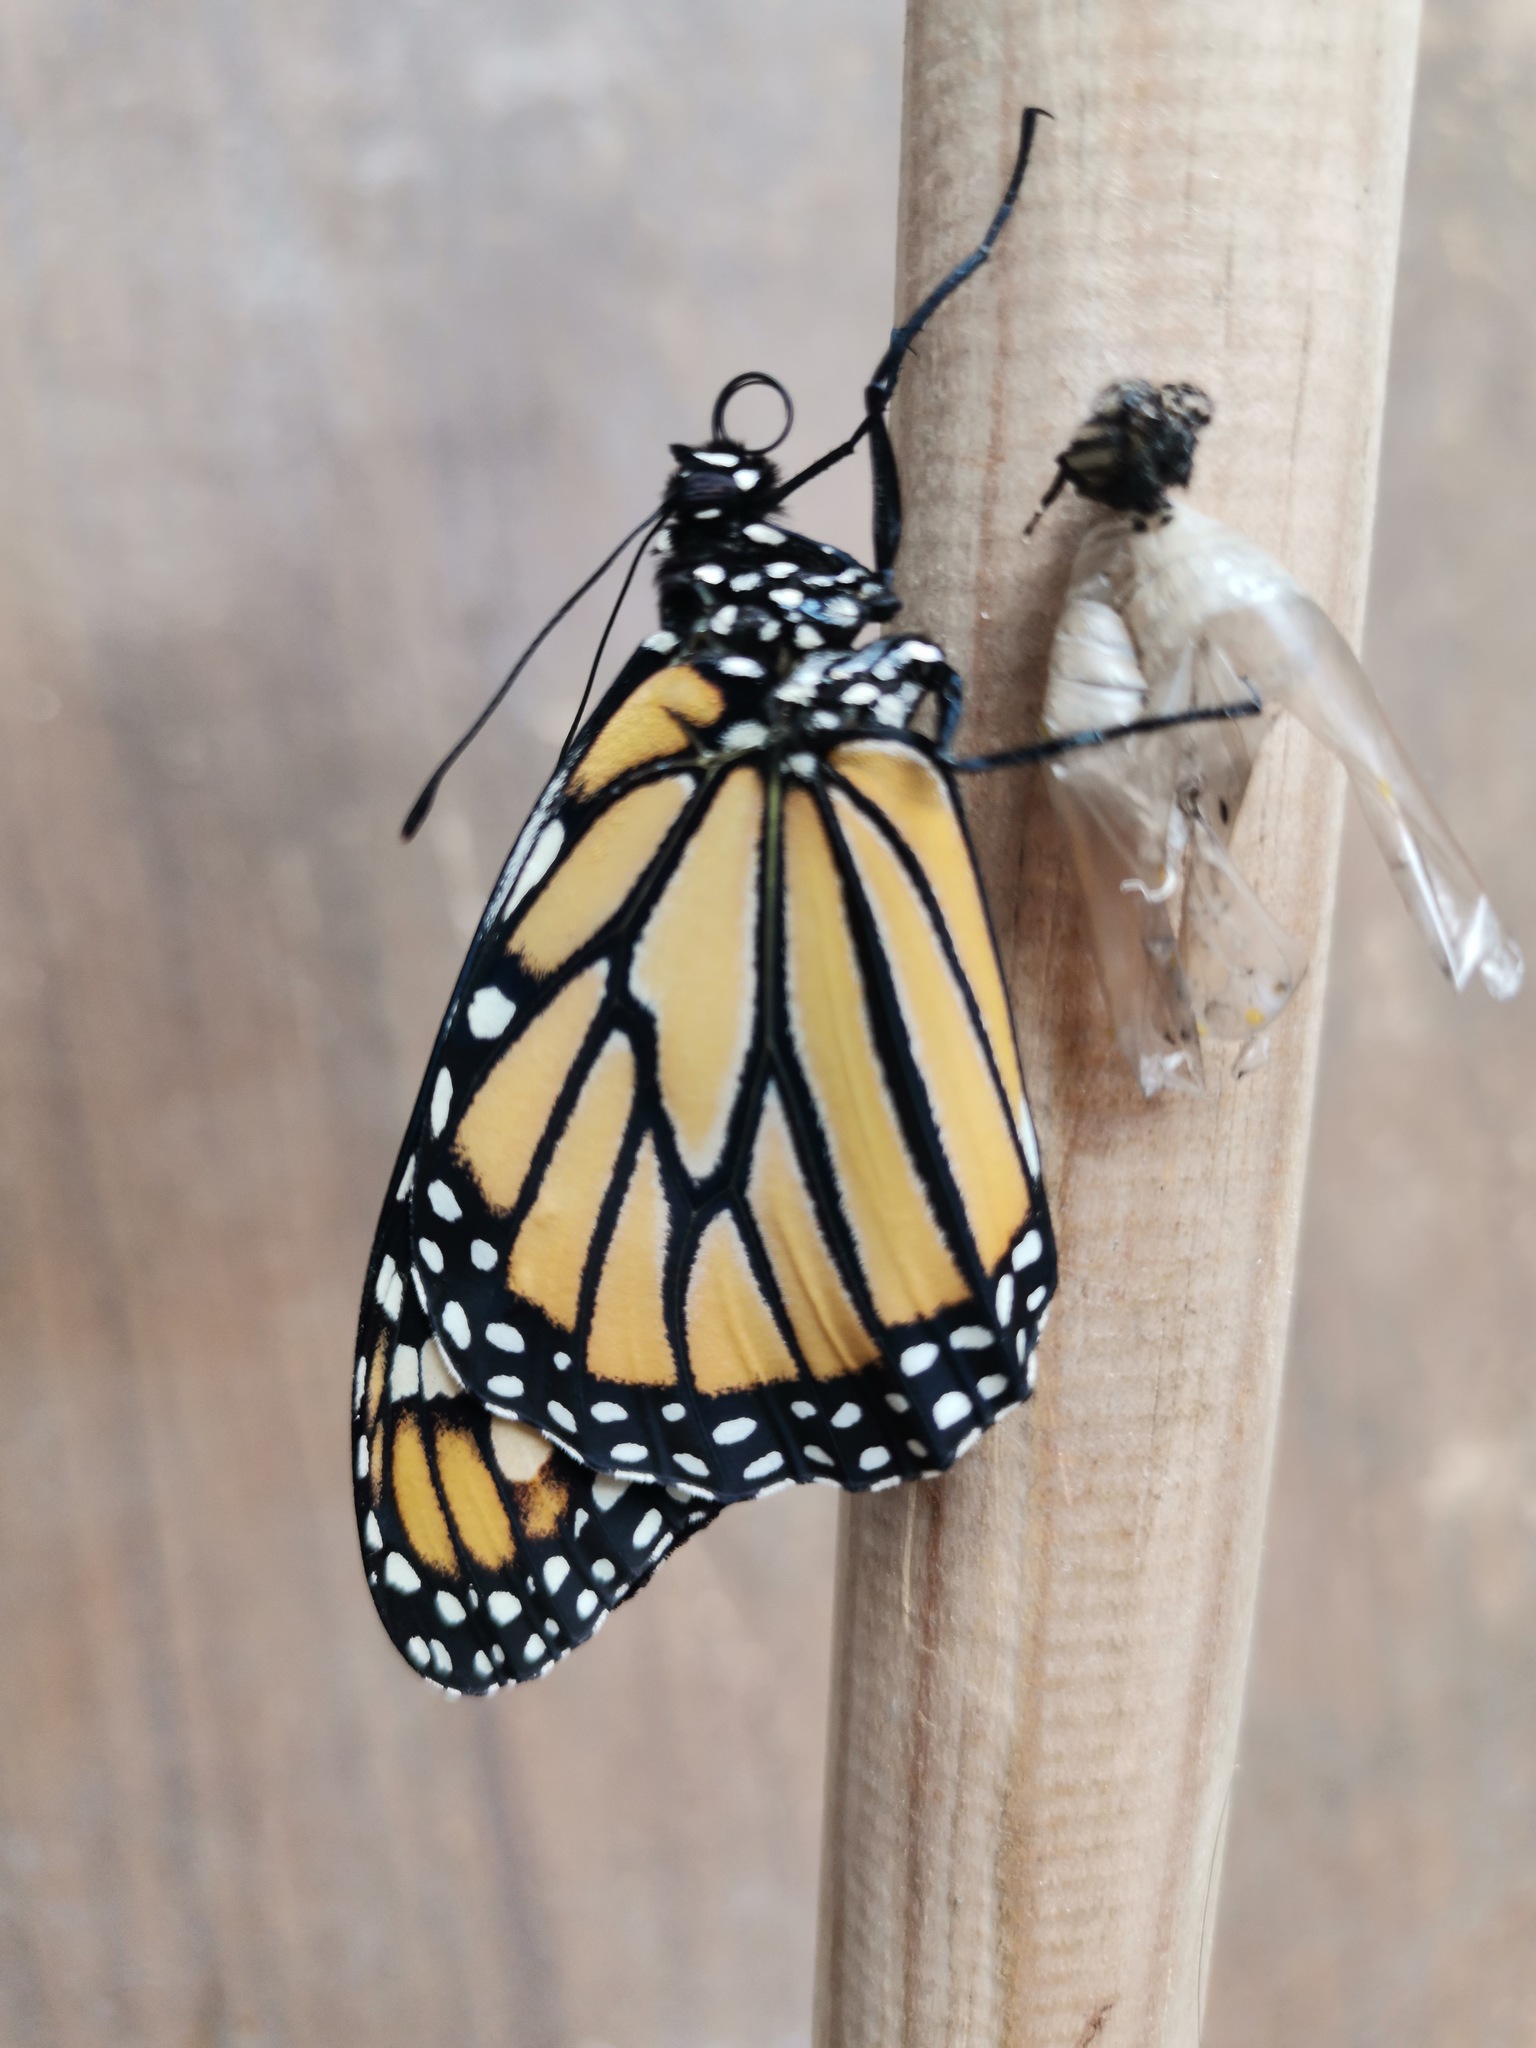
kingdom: Animalia
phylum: Arthropoda
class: Insecta
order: Lepidoptera
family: Nymphalidae
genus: Danaus
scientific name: Danaus plexippus
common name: Monarch
